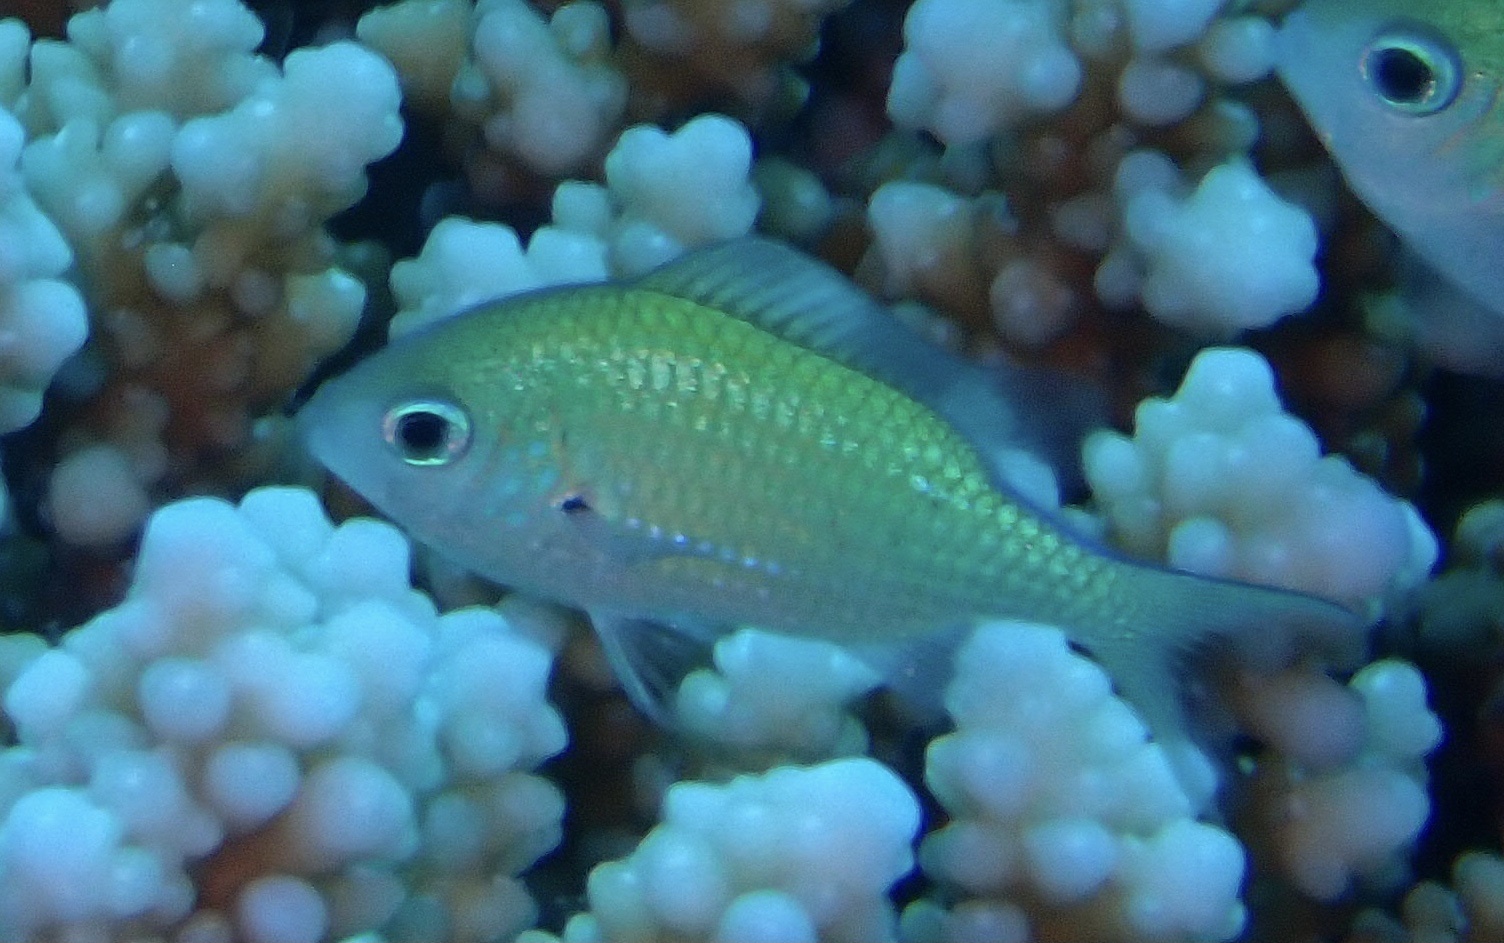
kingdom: Animalia
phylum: Chordata
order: Perciformes
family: Pomacentridae
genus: Chromis
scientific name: Chromis viridis
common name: Blue-green chromis
